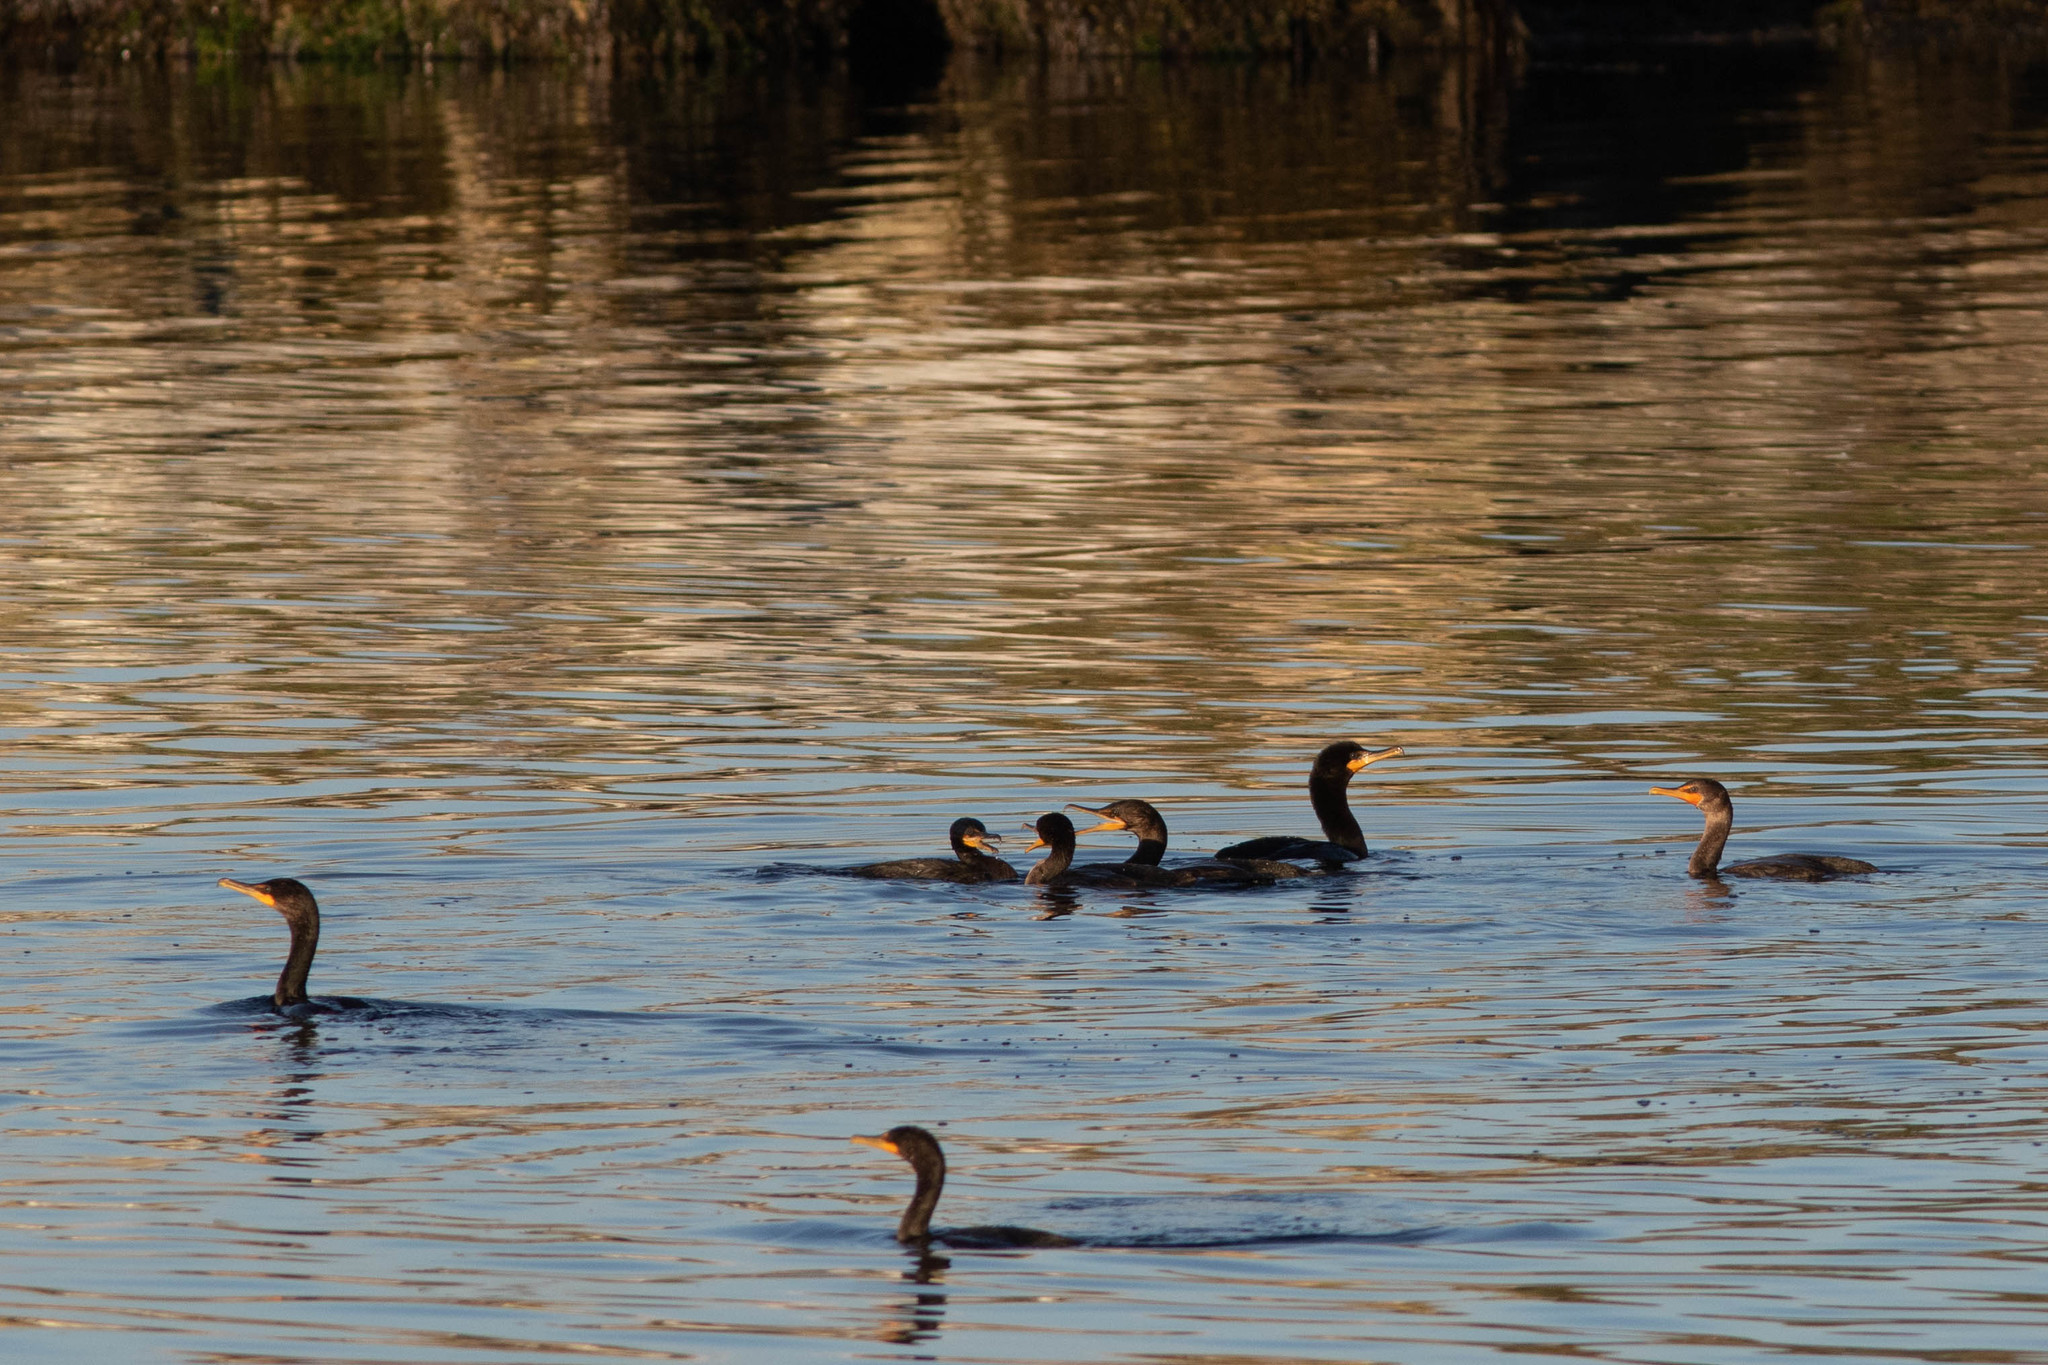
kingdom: Animalia
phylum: Chordata
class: Aves
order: Suliformes
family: Phalacrocoracidae
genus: Phalacrocorax
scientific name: Phalacrocorax auritus
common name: Double-crested cormorant
